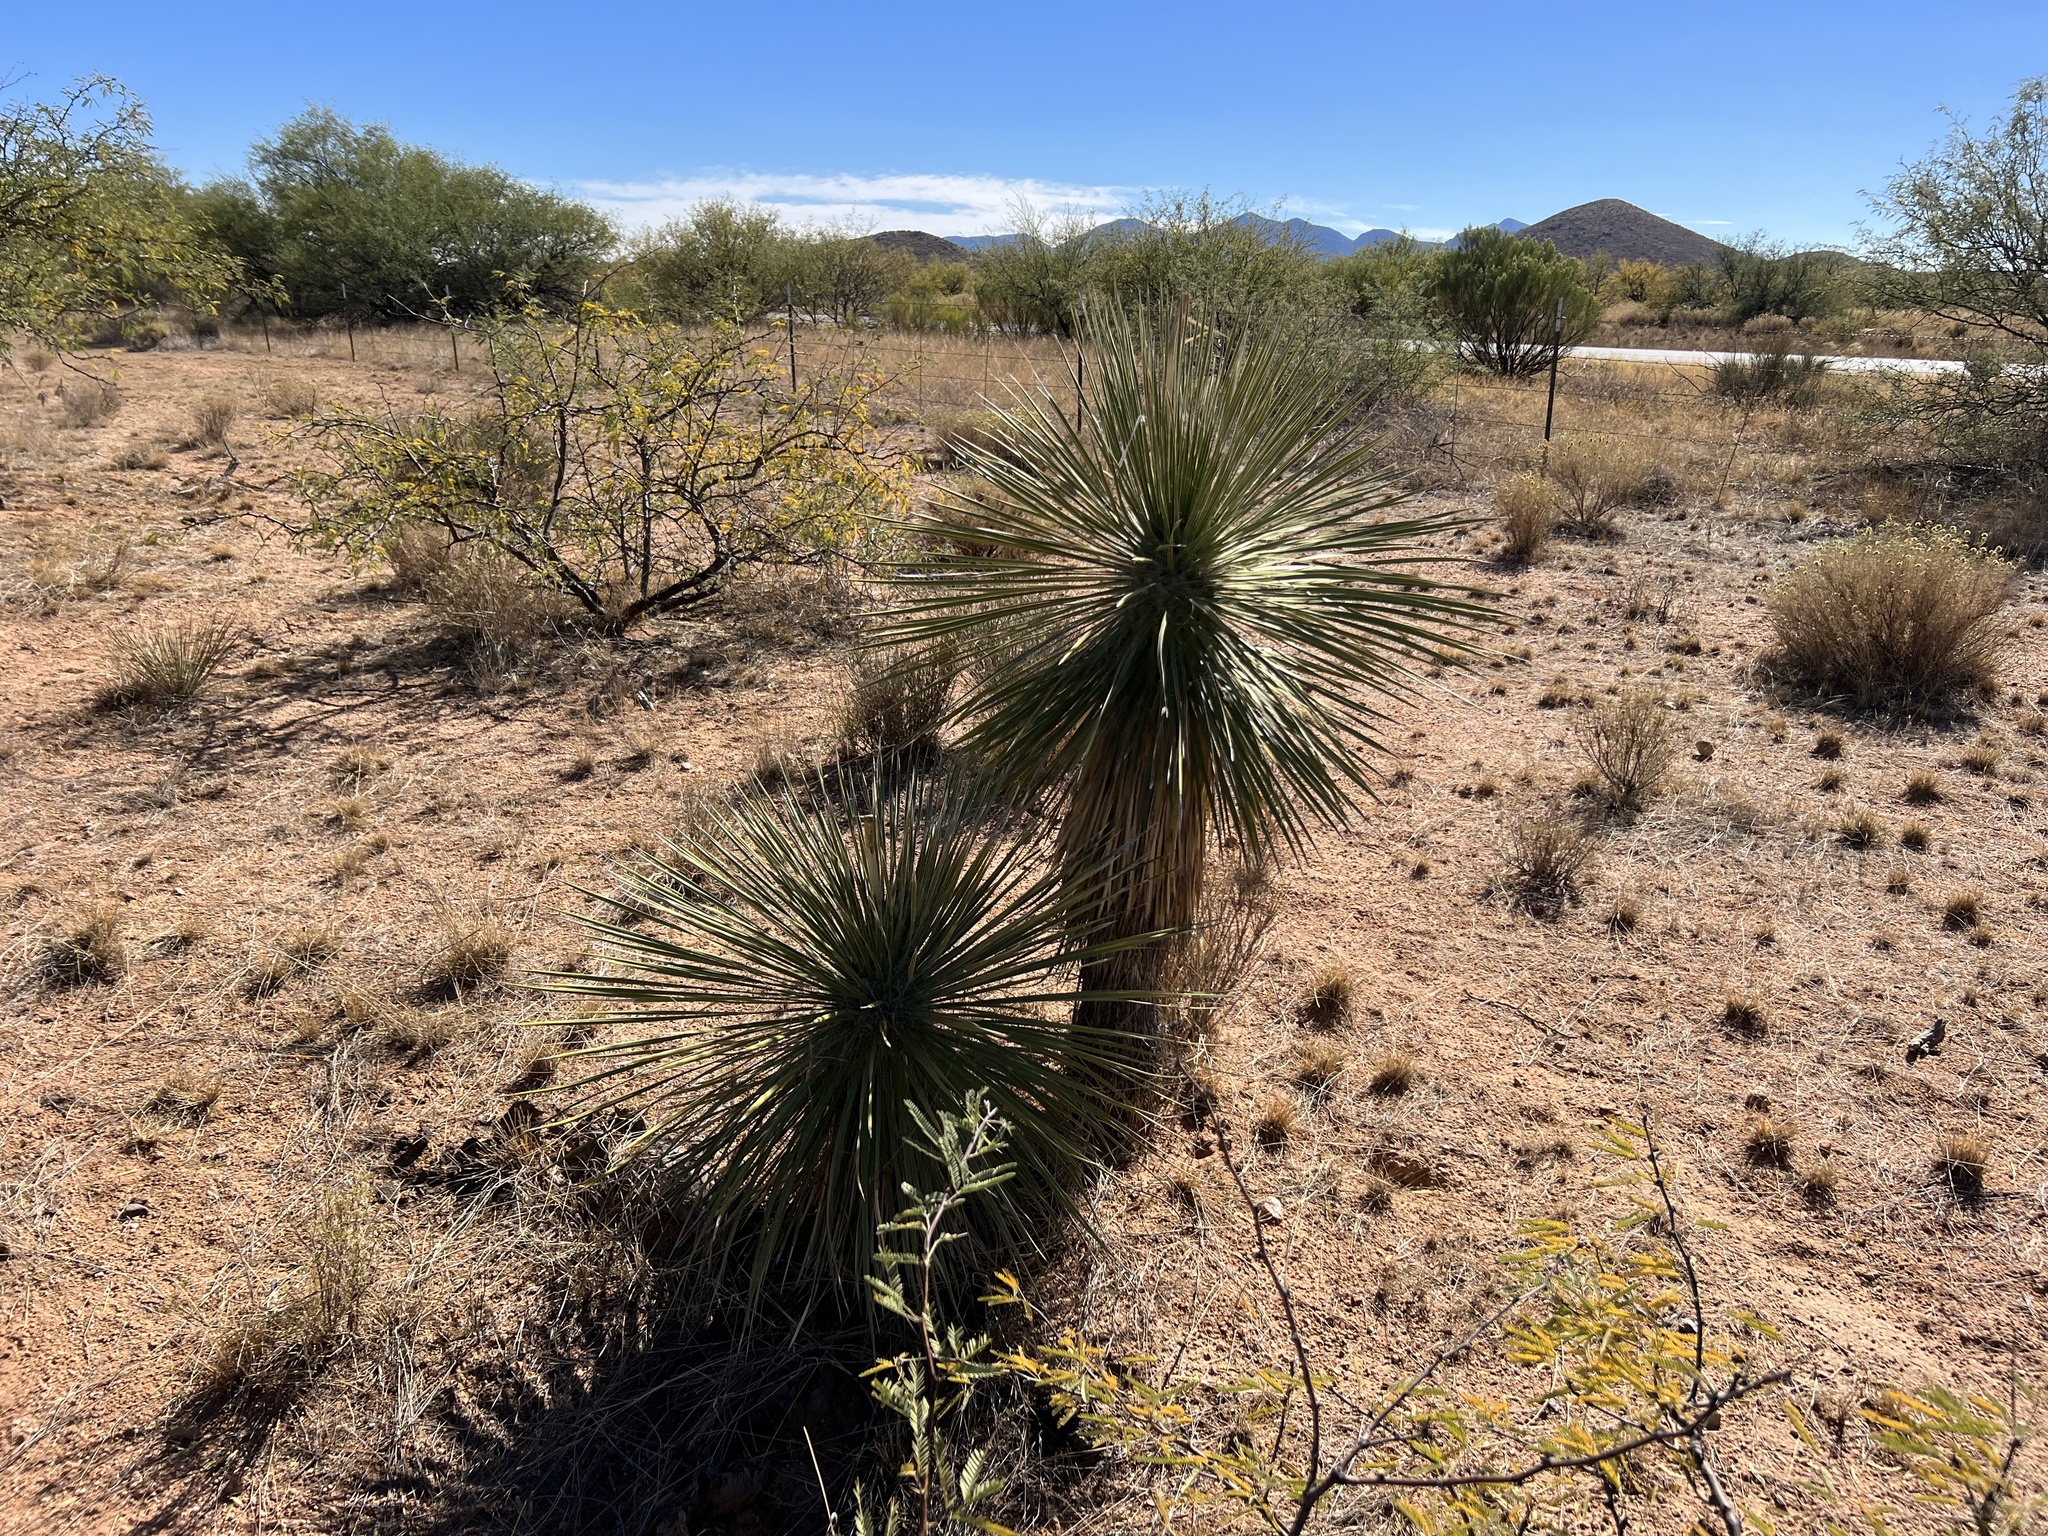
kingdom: Plantae
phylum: Tracheophyta
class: Liliopsida
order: Asparagales
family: Asparagaceae
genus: Yucca
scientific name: Yucca elata
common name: Palmella
